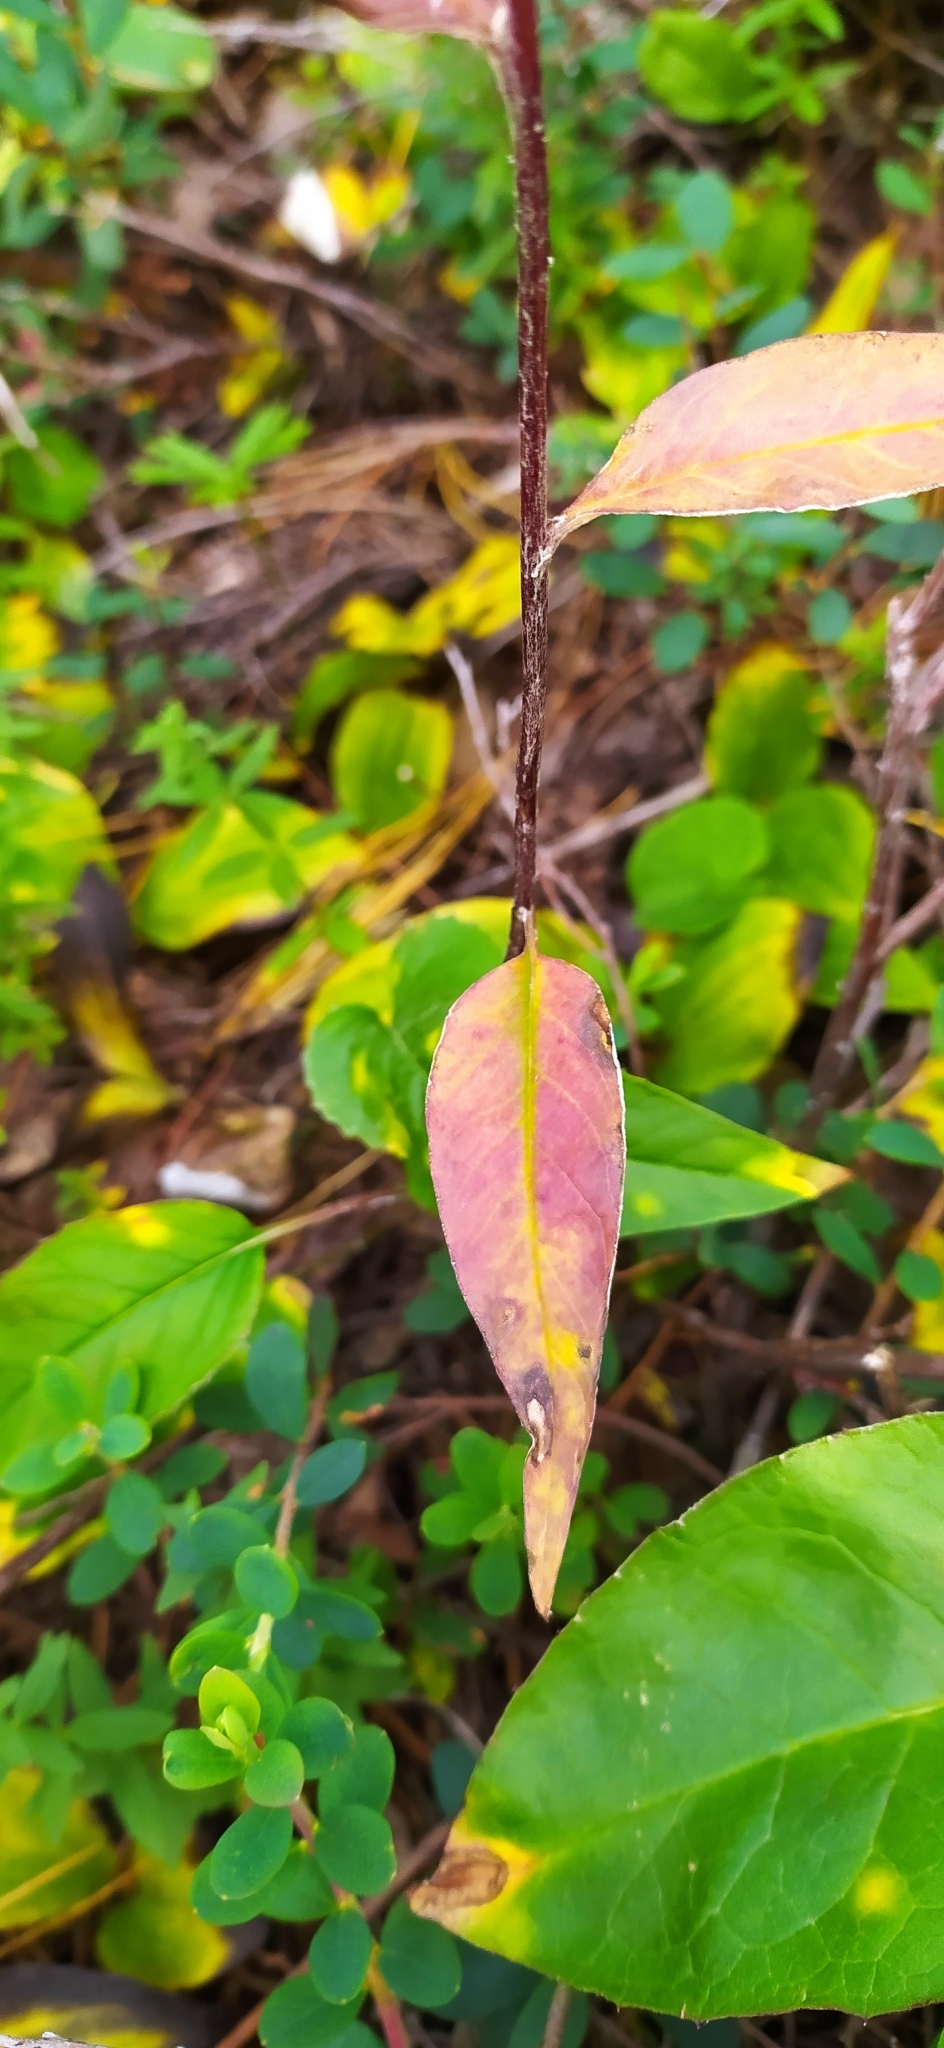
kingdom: Plantae
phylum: Tracheophyta
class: Magnoliopsida
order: Asterales
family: Asteraceae
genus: Saussurea
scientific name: Saussurea alpina
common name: Alpine saw-wort
